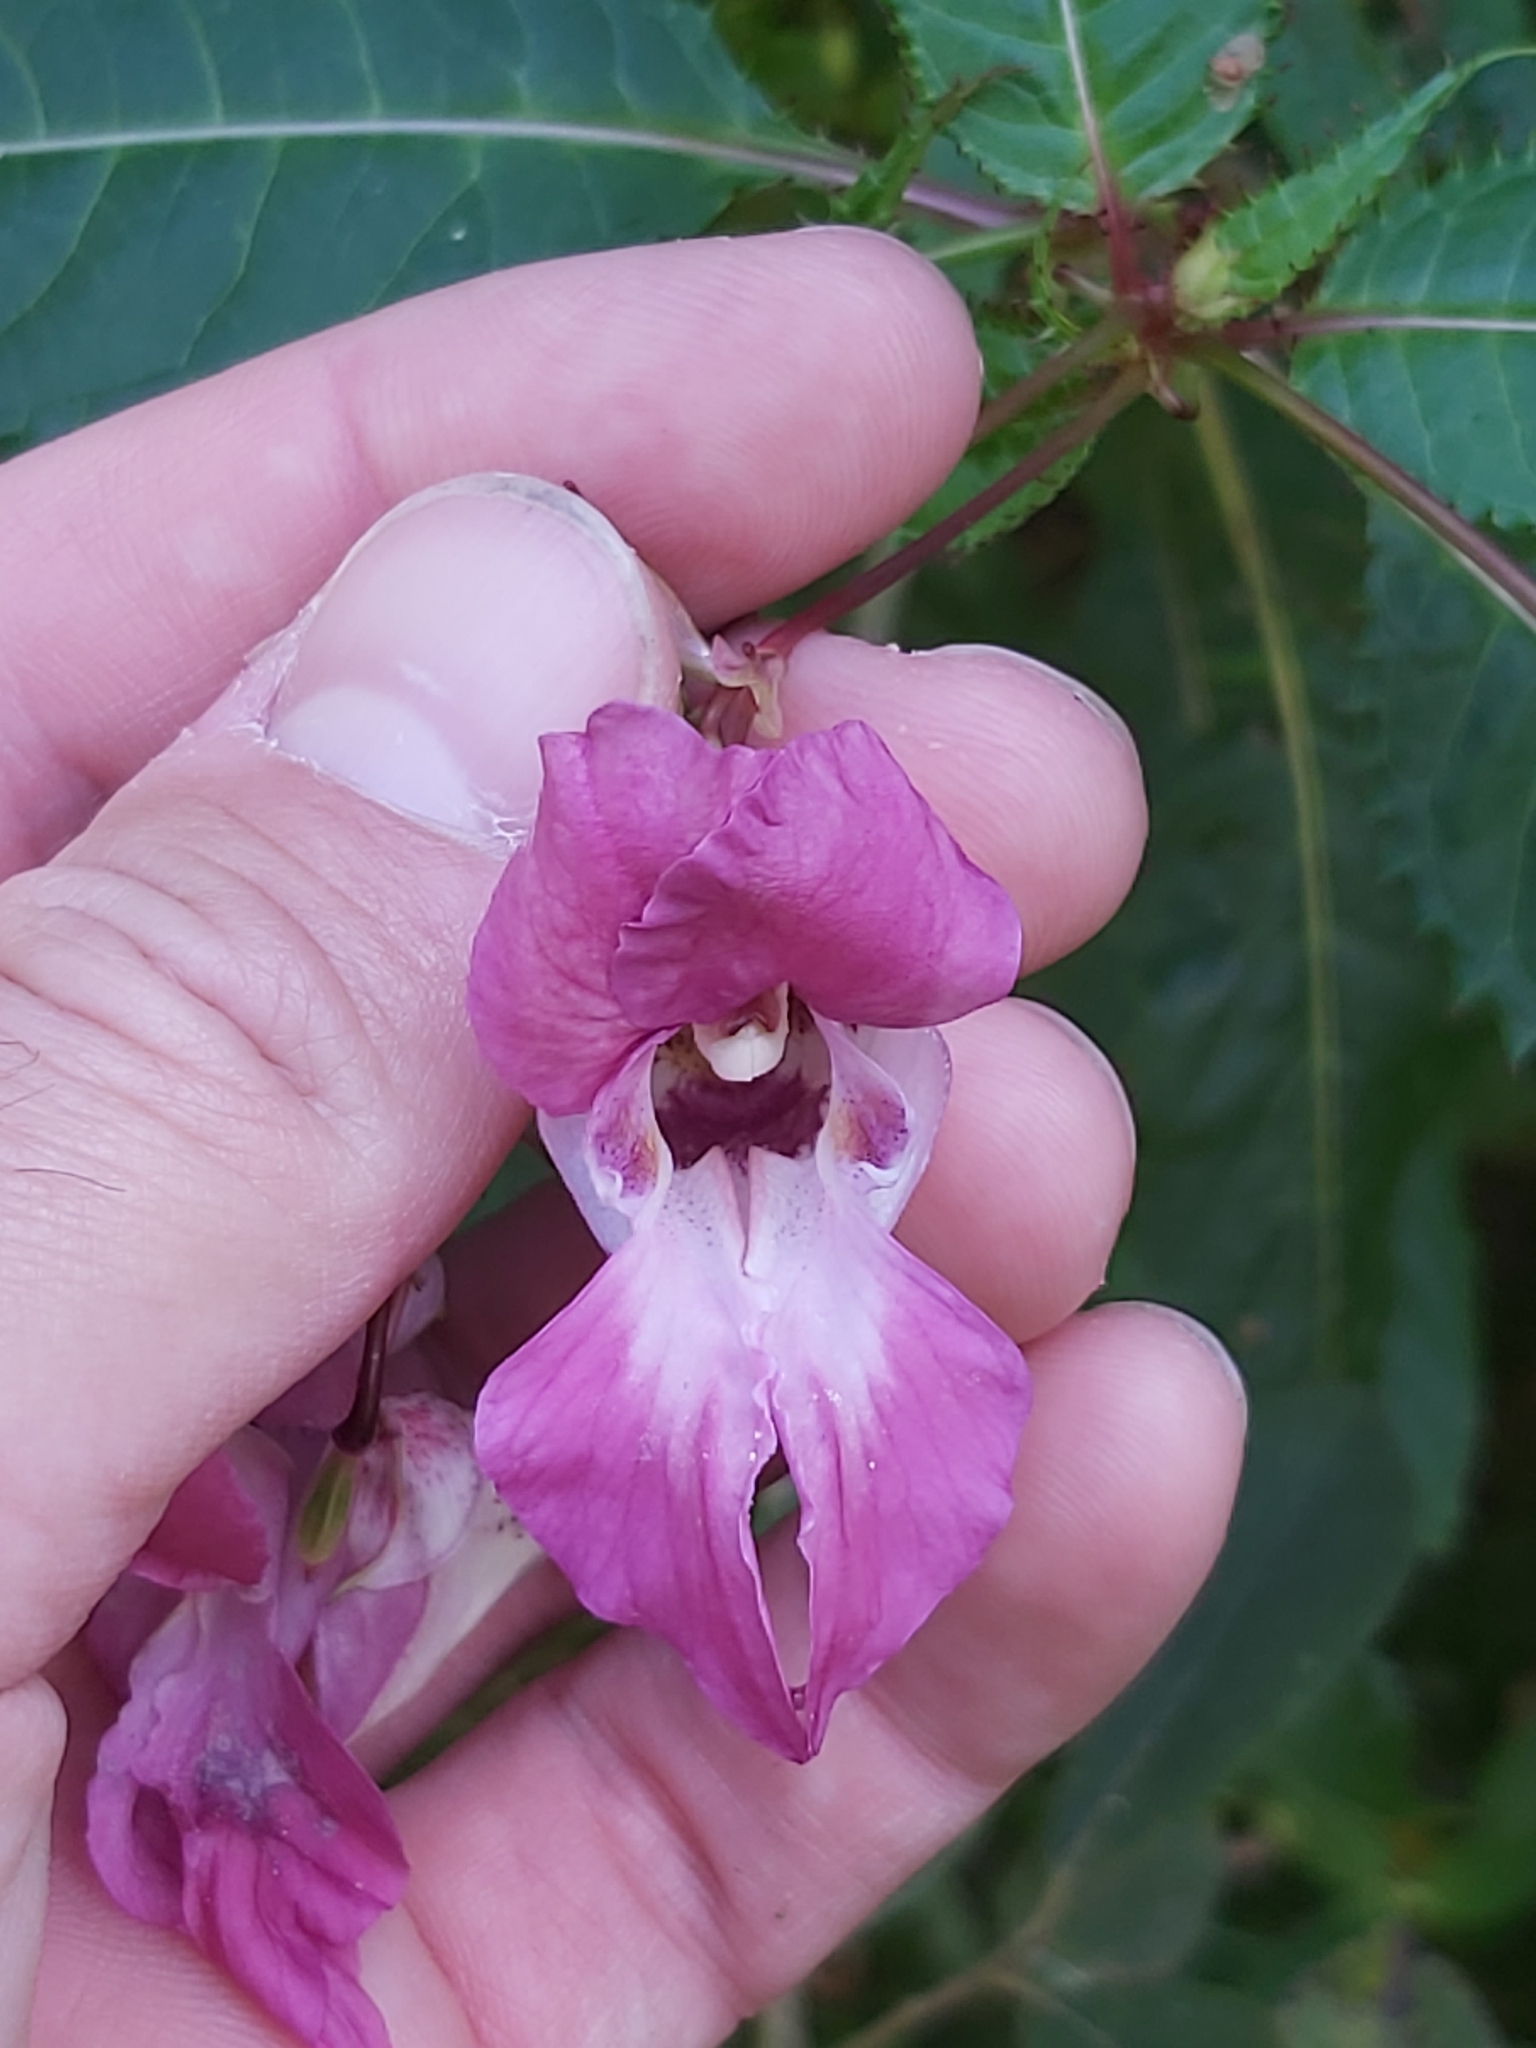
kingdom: Plantae
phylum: Tracheophyta
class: Magnoliopsida
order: Ericales
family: Balsaminaceae
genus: Impatiens
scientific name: Impatiens glandulifera
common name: Himalayan balsam
